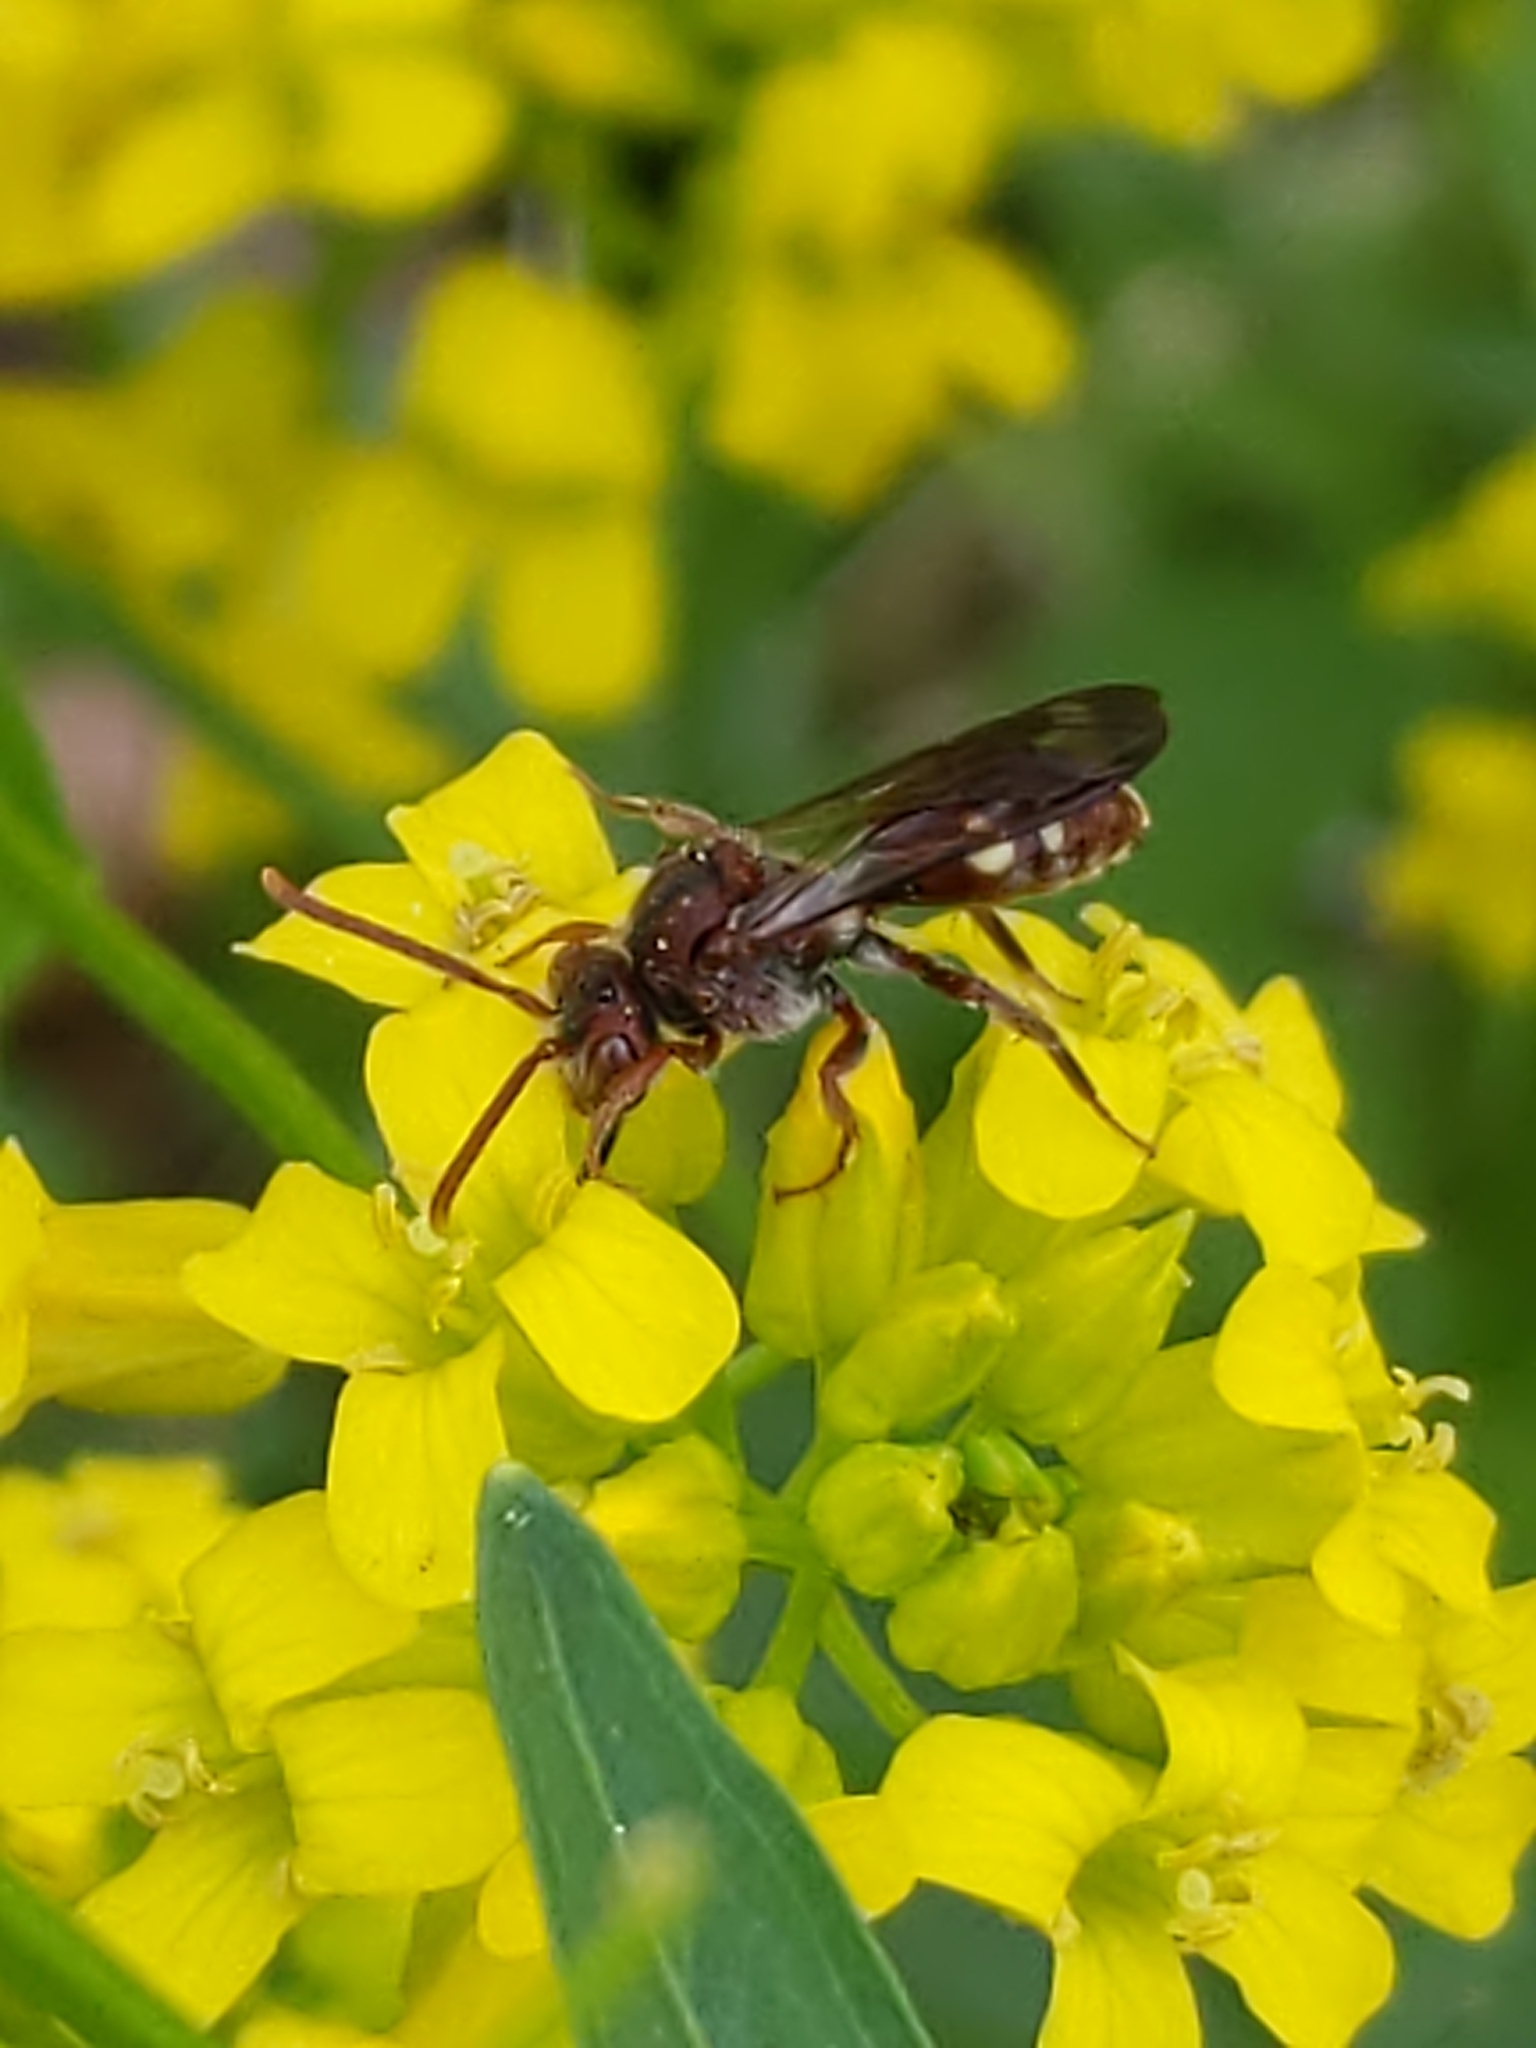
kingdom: Animalia
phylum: Arthropoda
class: Insecta
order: Hymenoptera
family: Apidae
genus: Nomada
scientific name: Nomada
